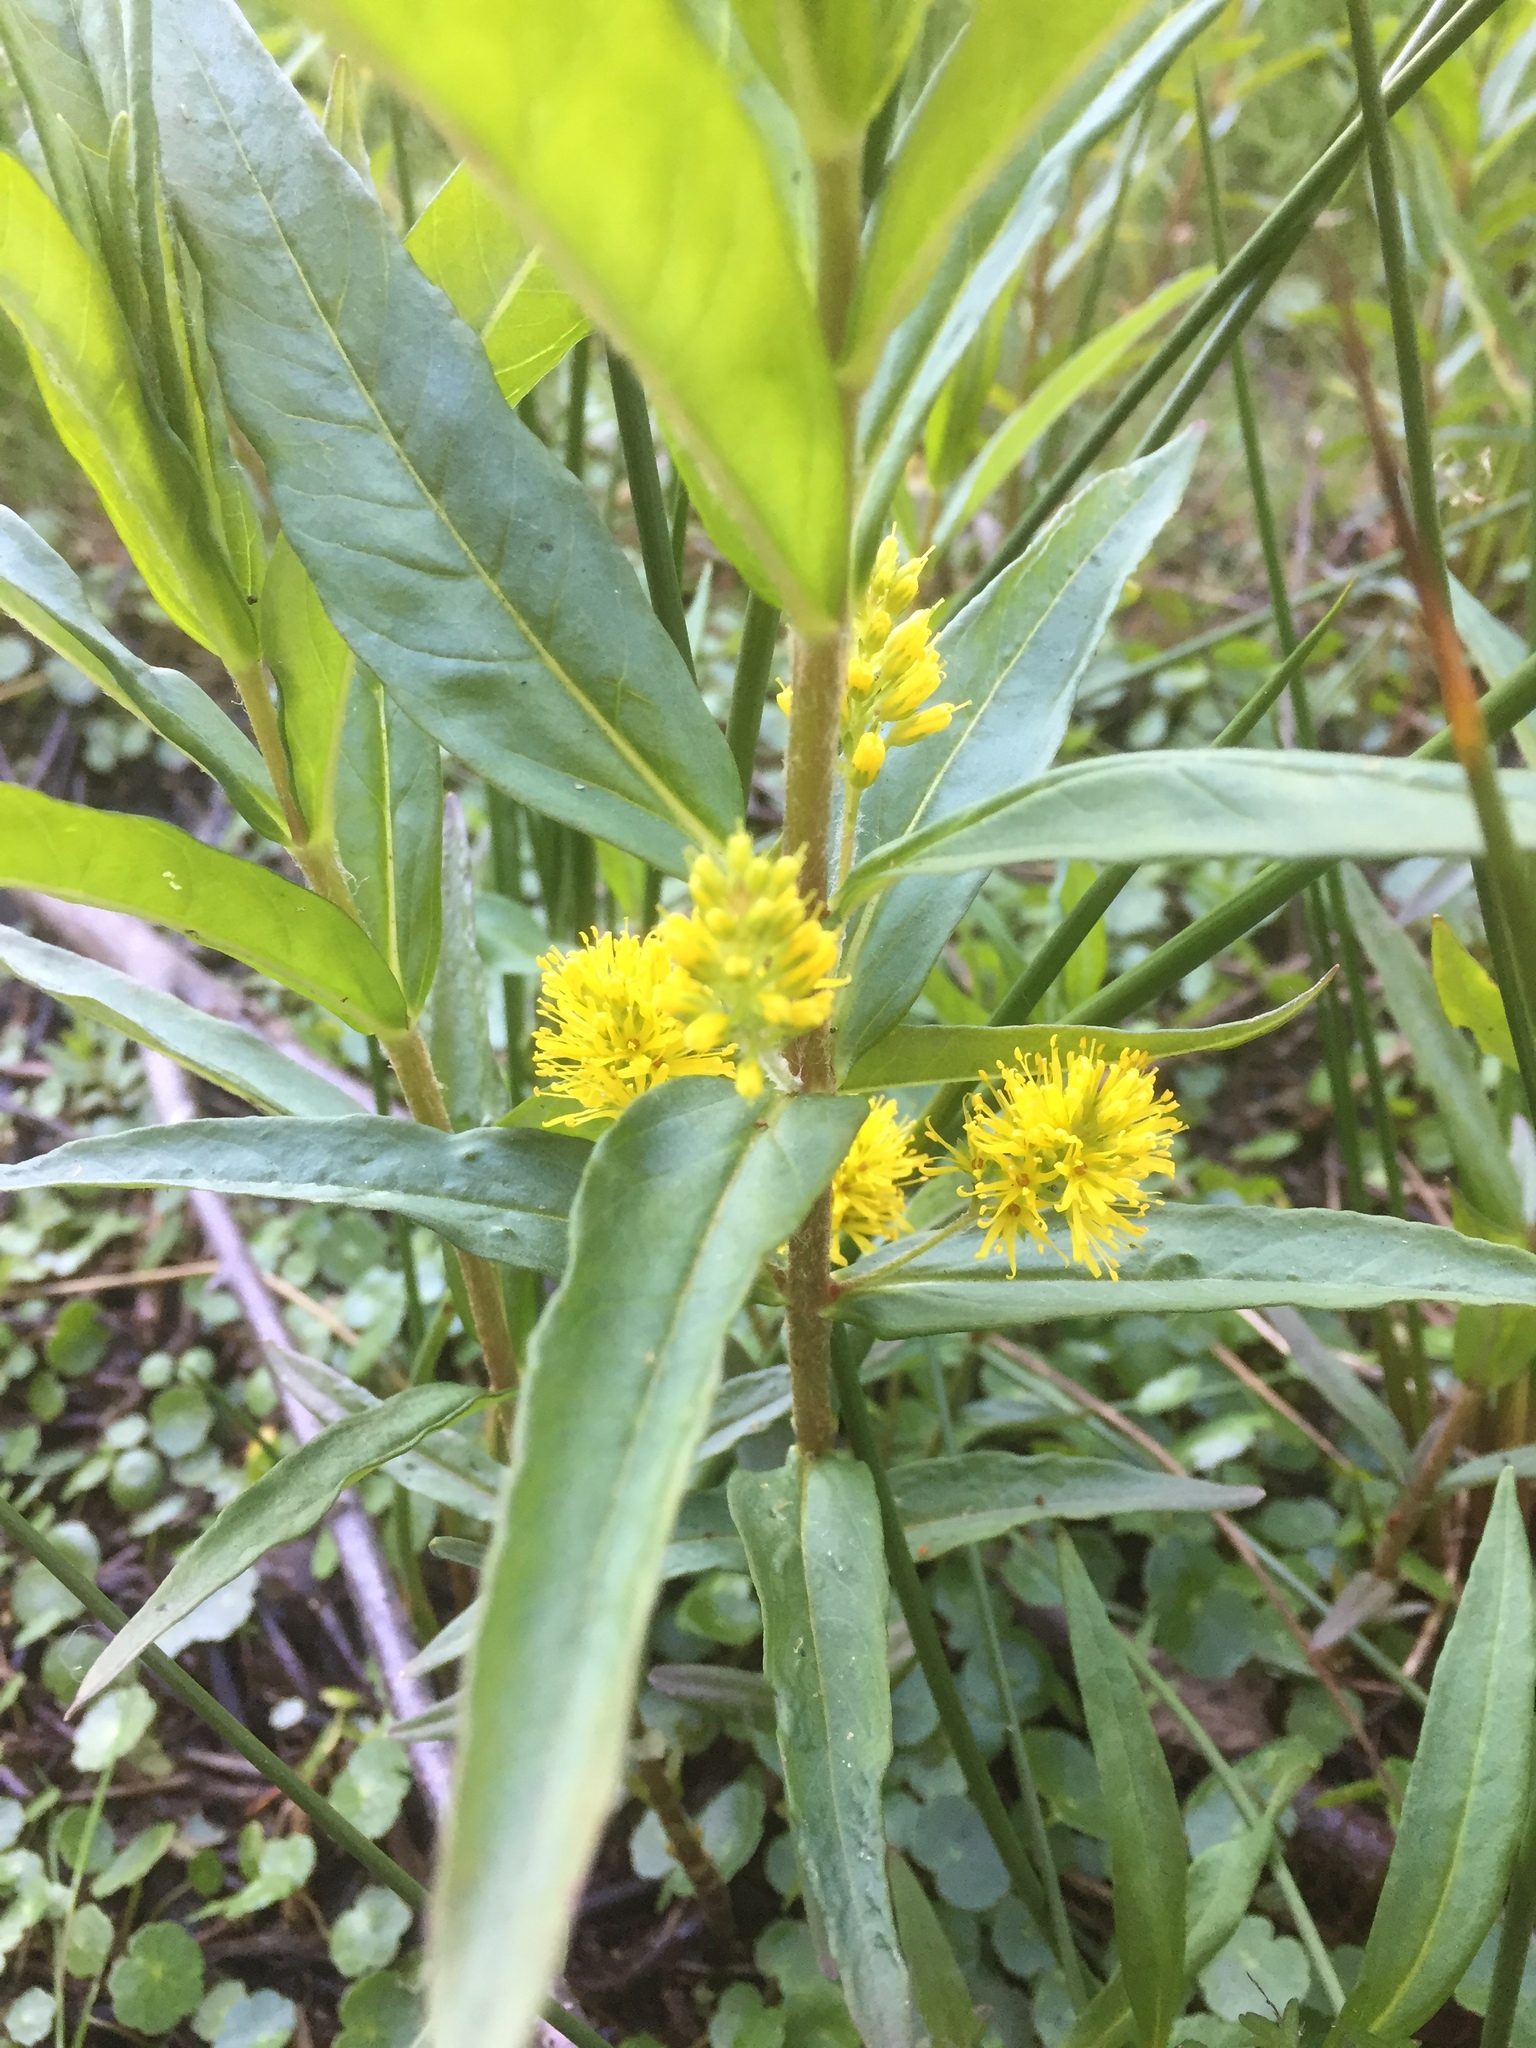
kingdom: Plantae
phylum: Tracheophyta
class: Magnoliopsida
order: Ericales
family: Primulaceae
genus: Lysimachia
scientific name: Lysimachia thyrsiflora
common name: Tufted loosestrife
